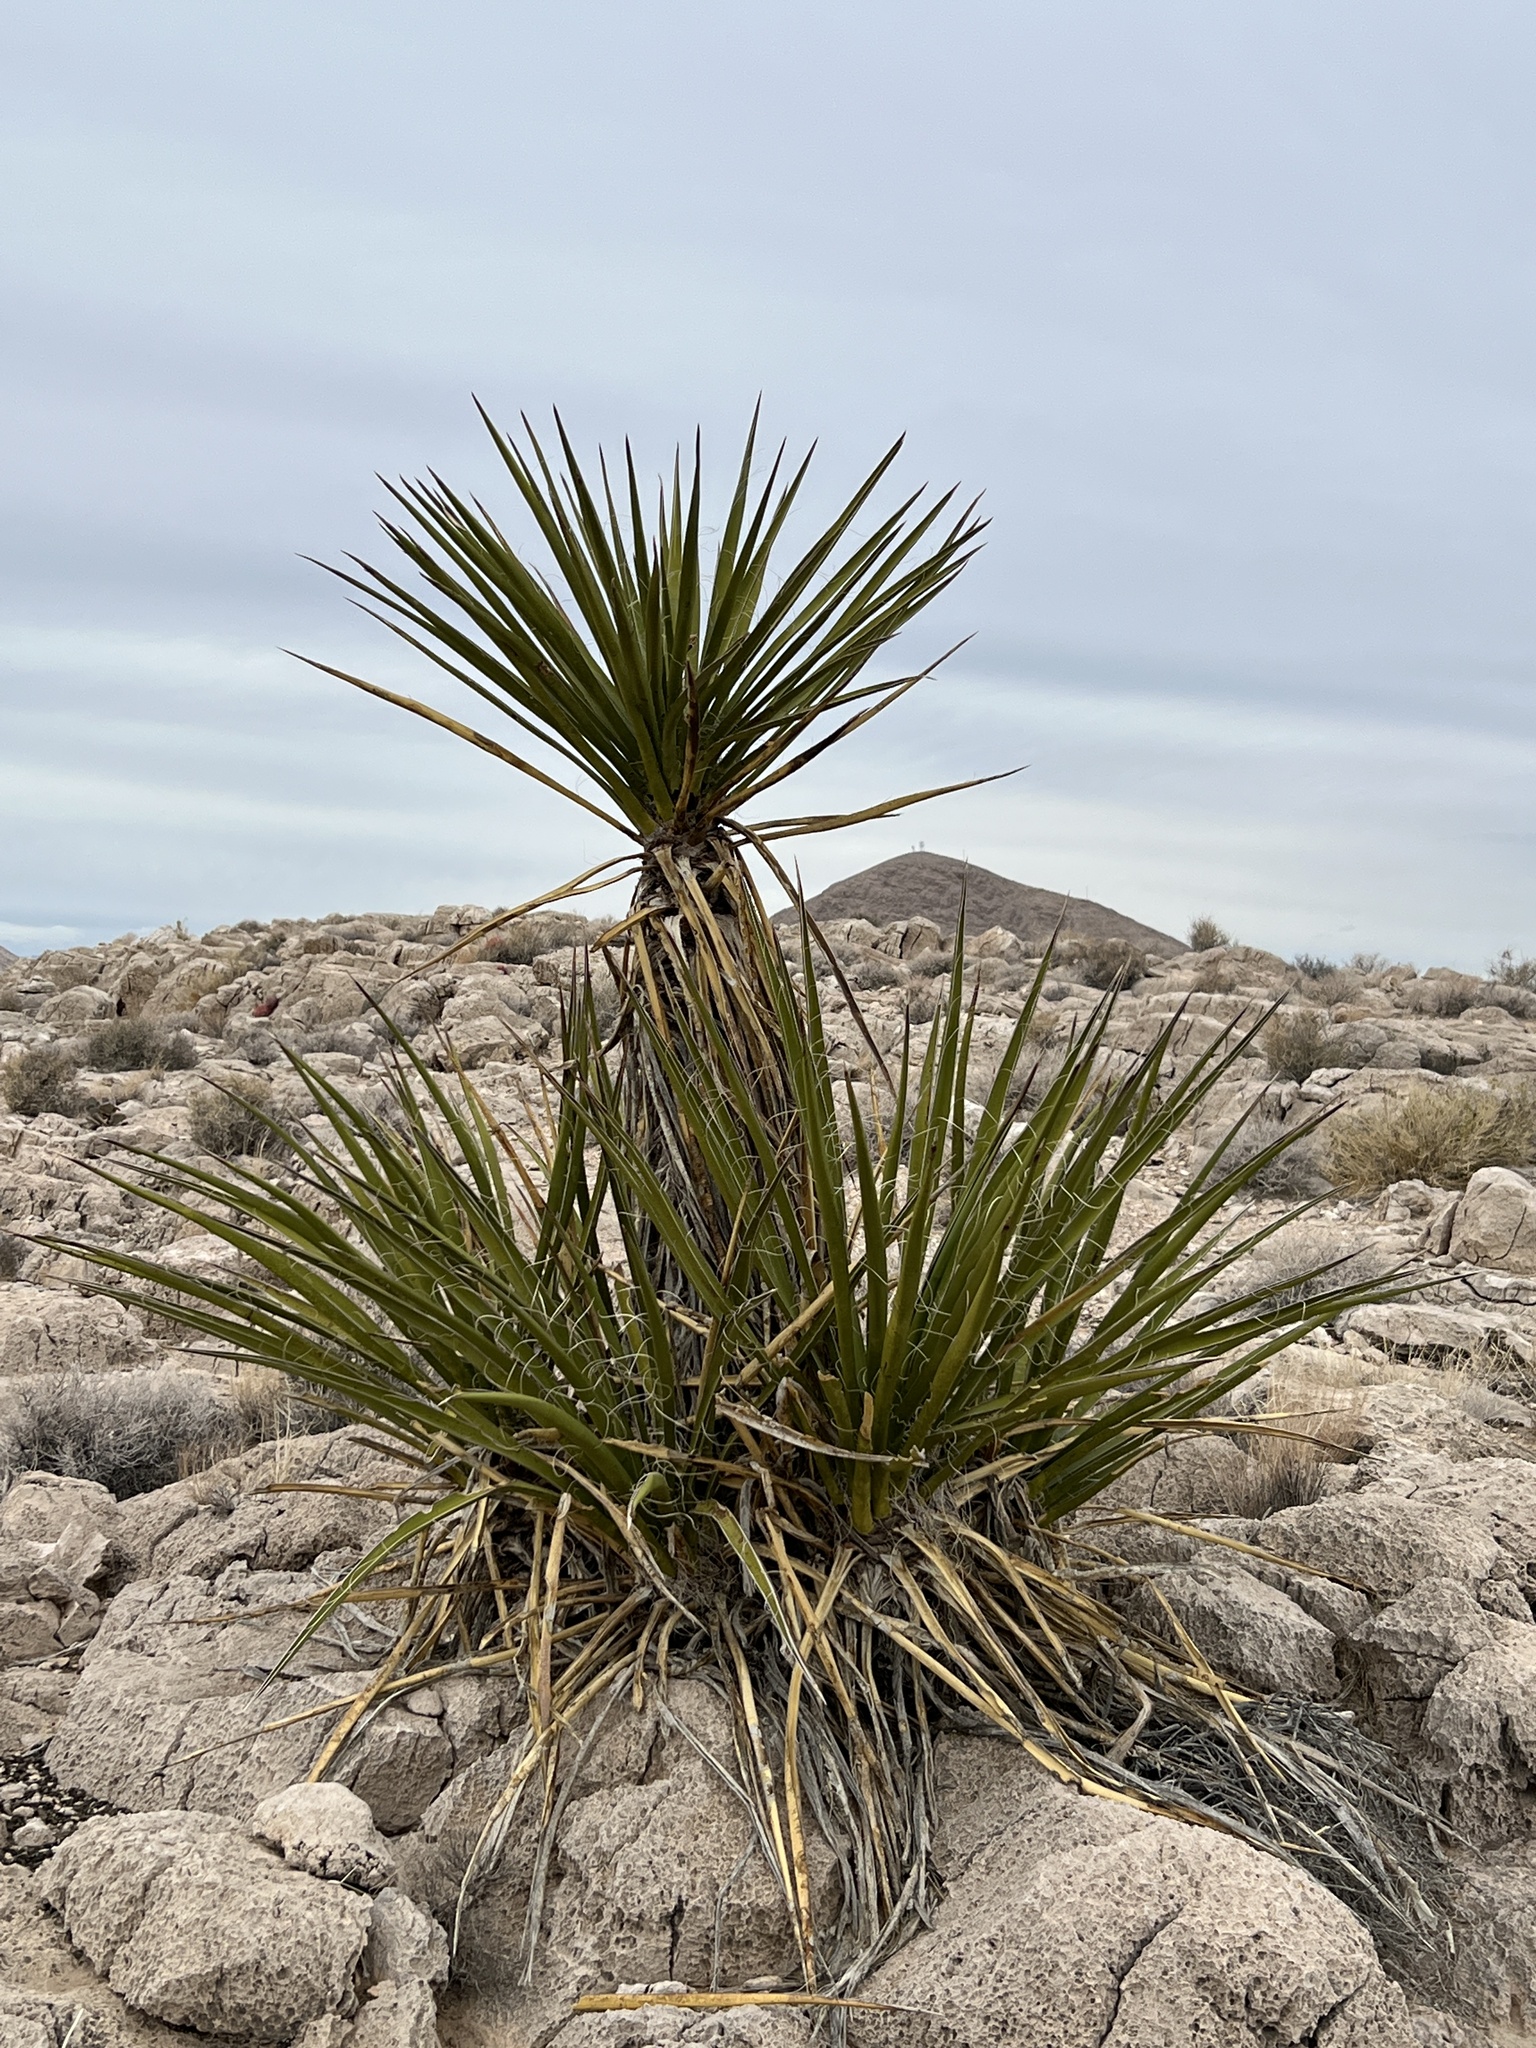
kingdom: Plantae
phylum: Tracheophyta
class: Liliopsida
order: Asparagales
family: Asparagaceae
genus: Yucca
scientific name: Yucca schidigera
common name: Mojave yucca
